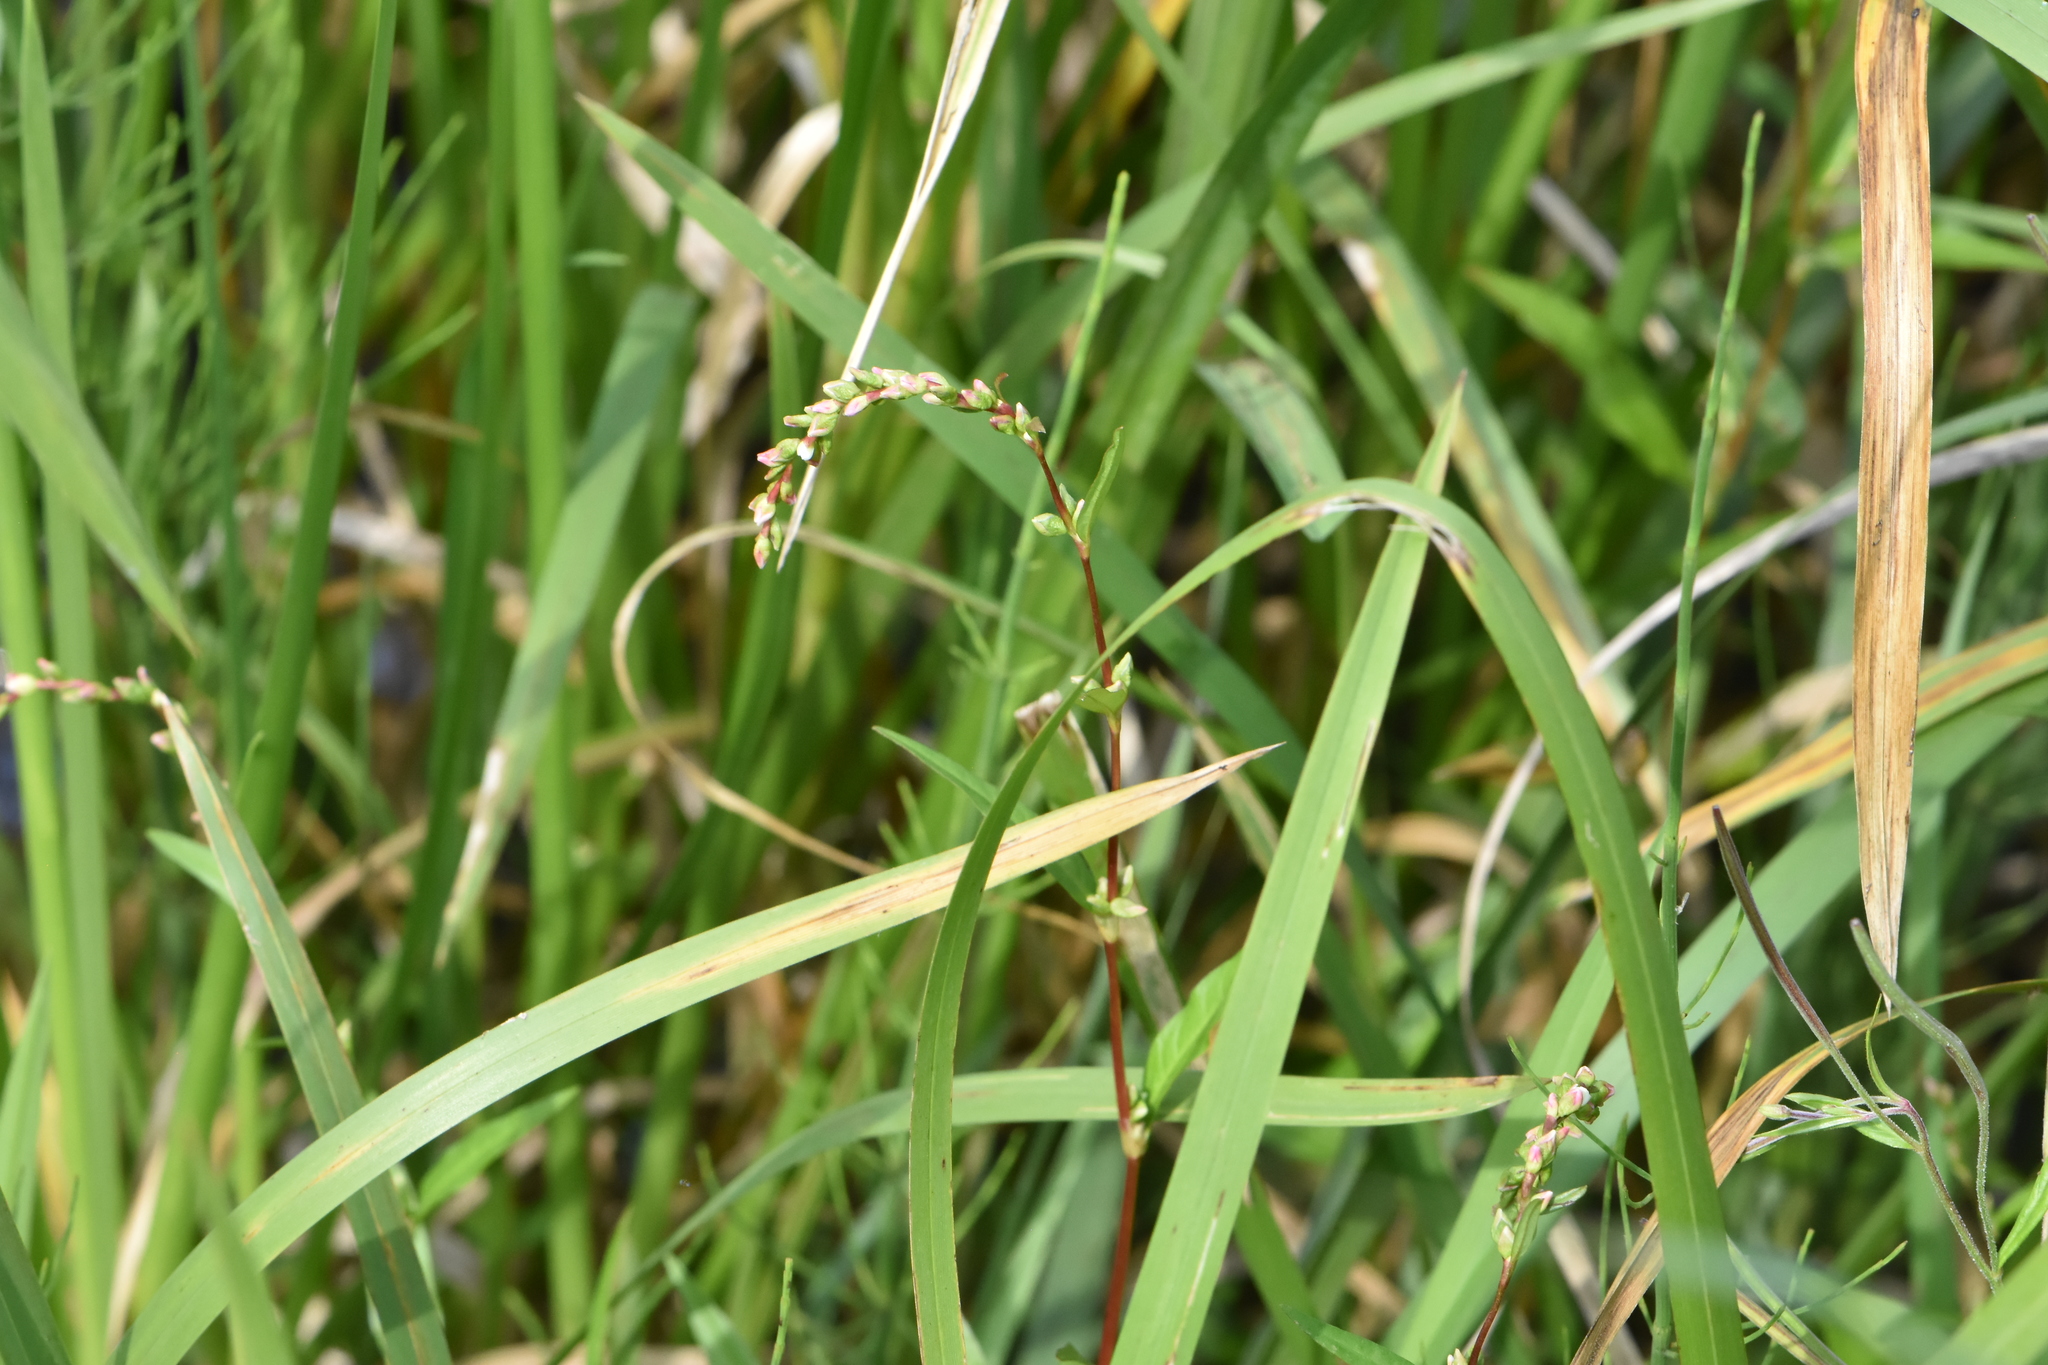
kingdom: Plantae
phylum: Tracheophyta
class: Magnoliopsida
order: Caryophyllales
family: Polygonaceae
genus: Persicaria
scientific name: Persicaria hydropiper
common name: Water-pepper
